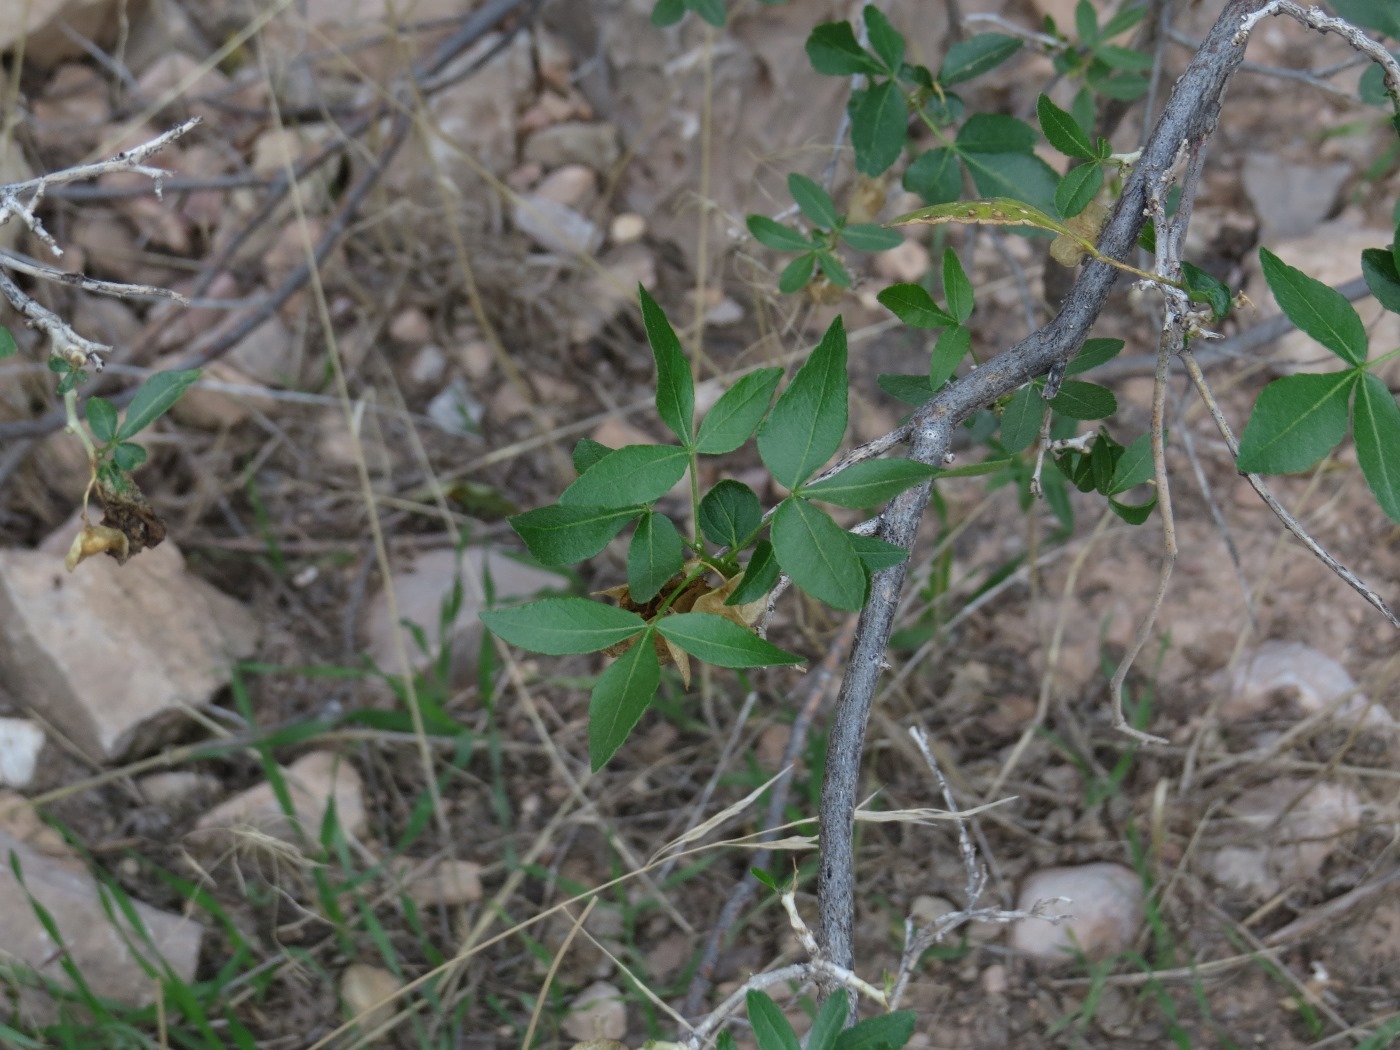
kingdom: Plantae
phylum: Tracheophyta
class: Magnoliopsida
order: Sapindales
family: Rutaceae
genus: Ptelea
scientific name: Ptelea trifoliata
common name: Common hop-tree
